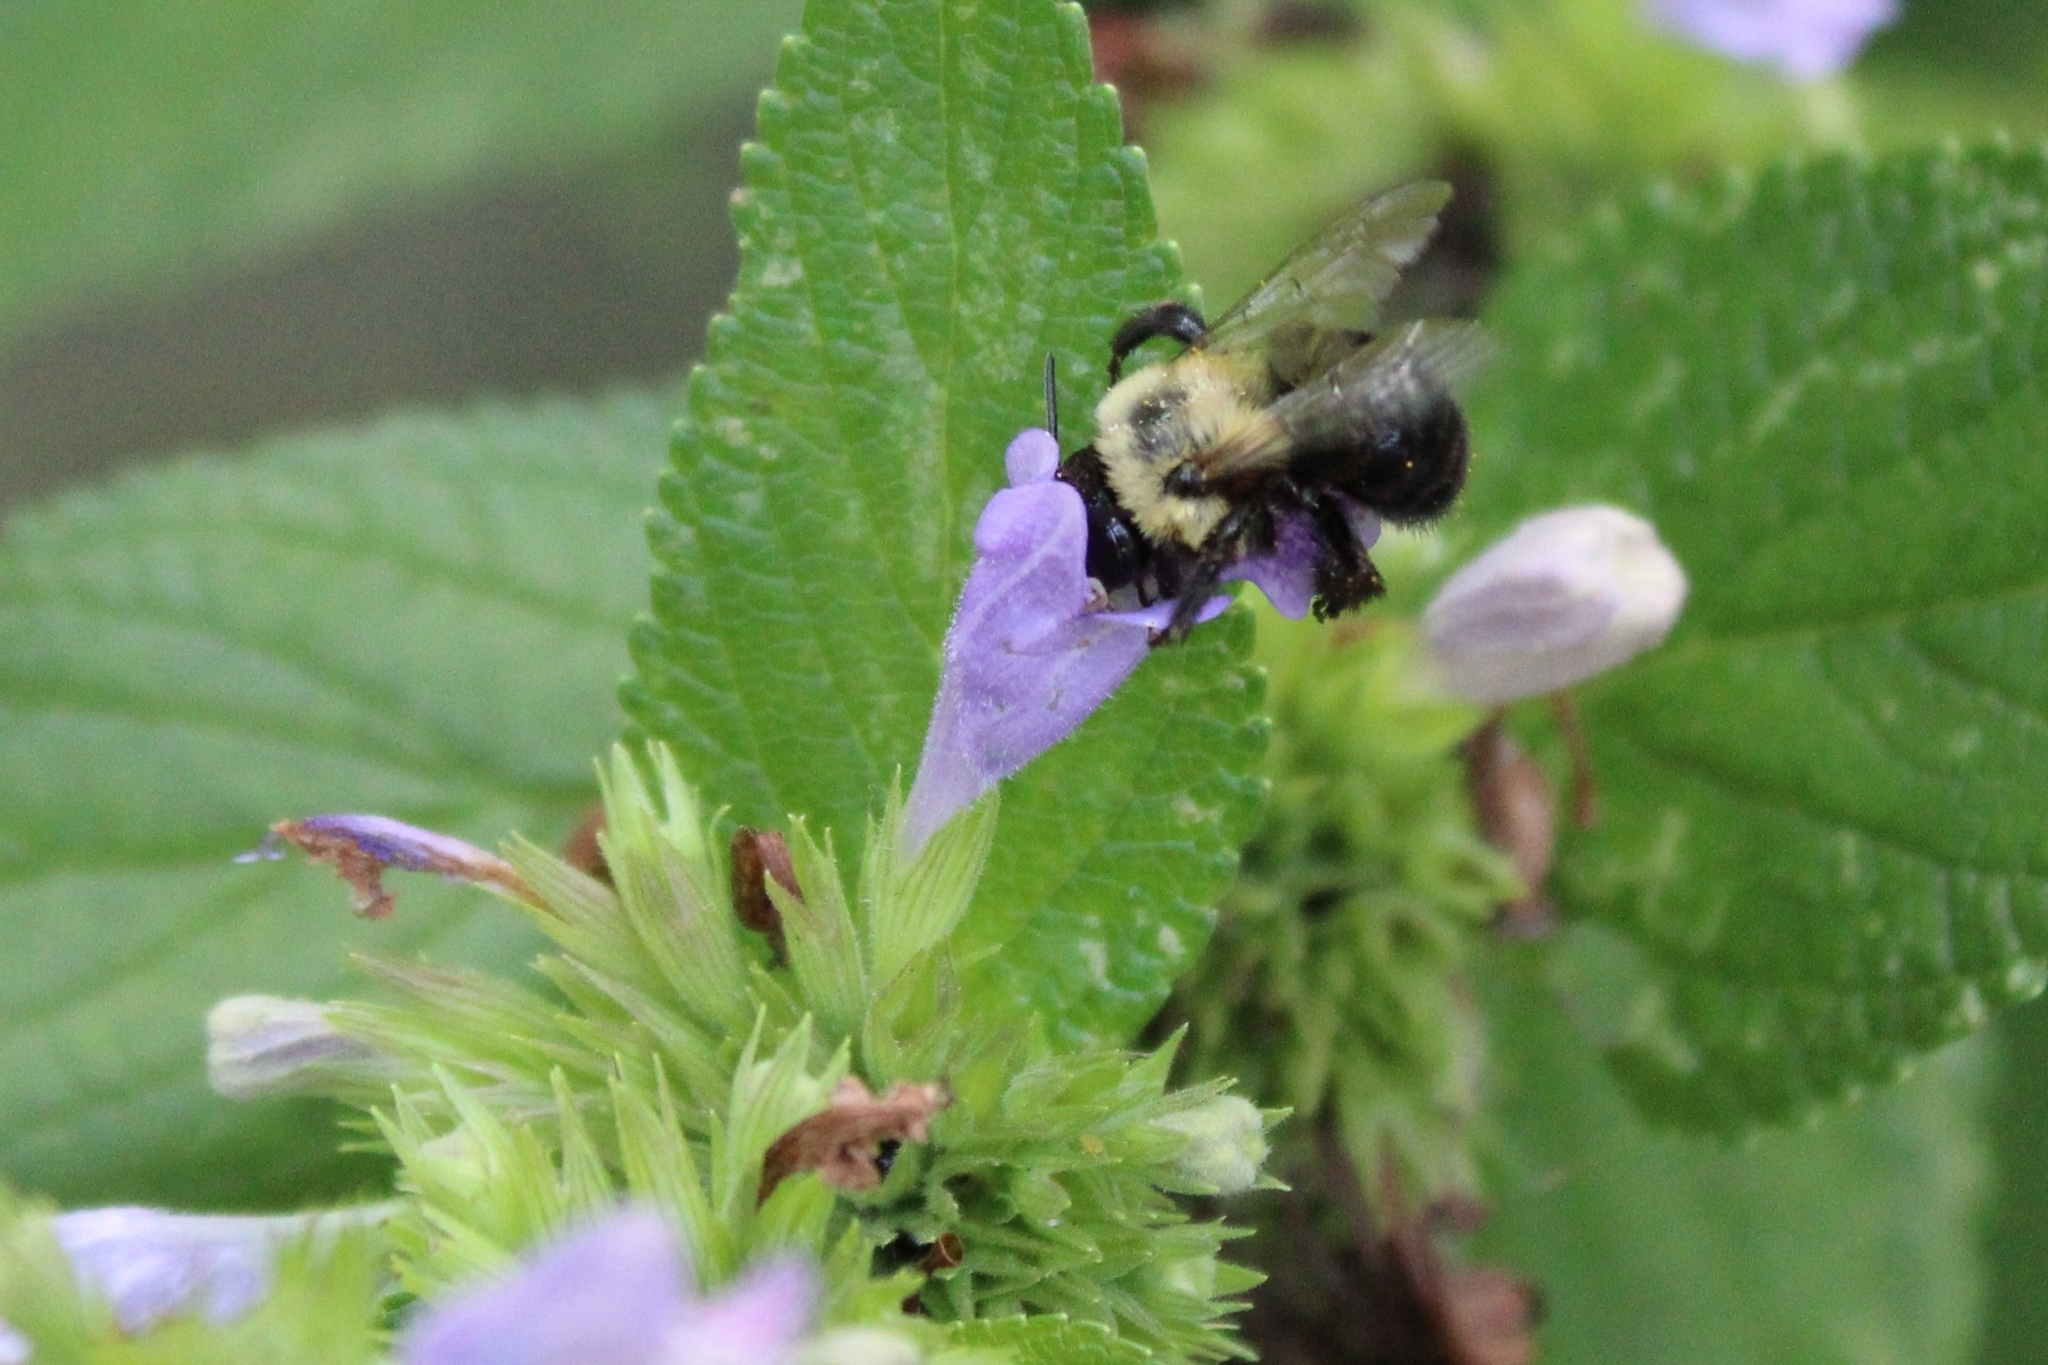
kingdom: Animalia
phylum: Arthropoda
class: Insecta
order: Hymenoptera
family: Apidae
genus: Anthophora
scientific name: Anthophora abrupta
